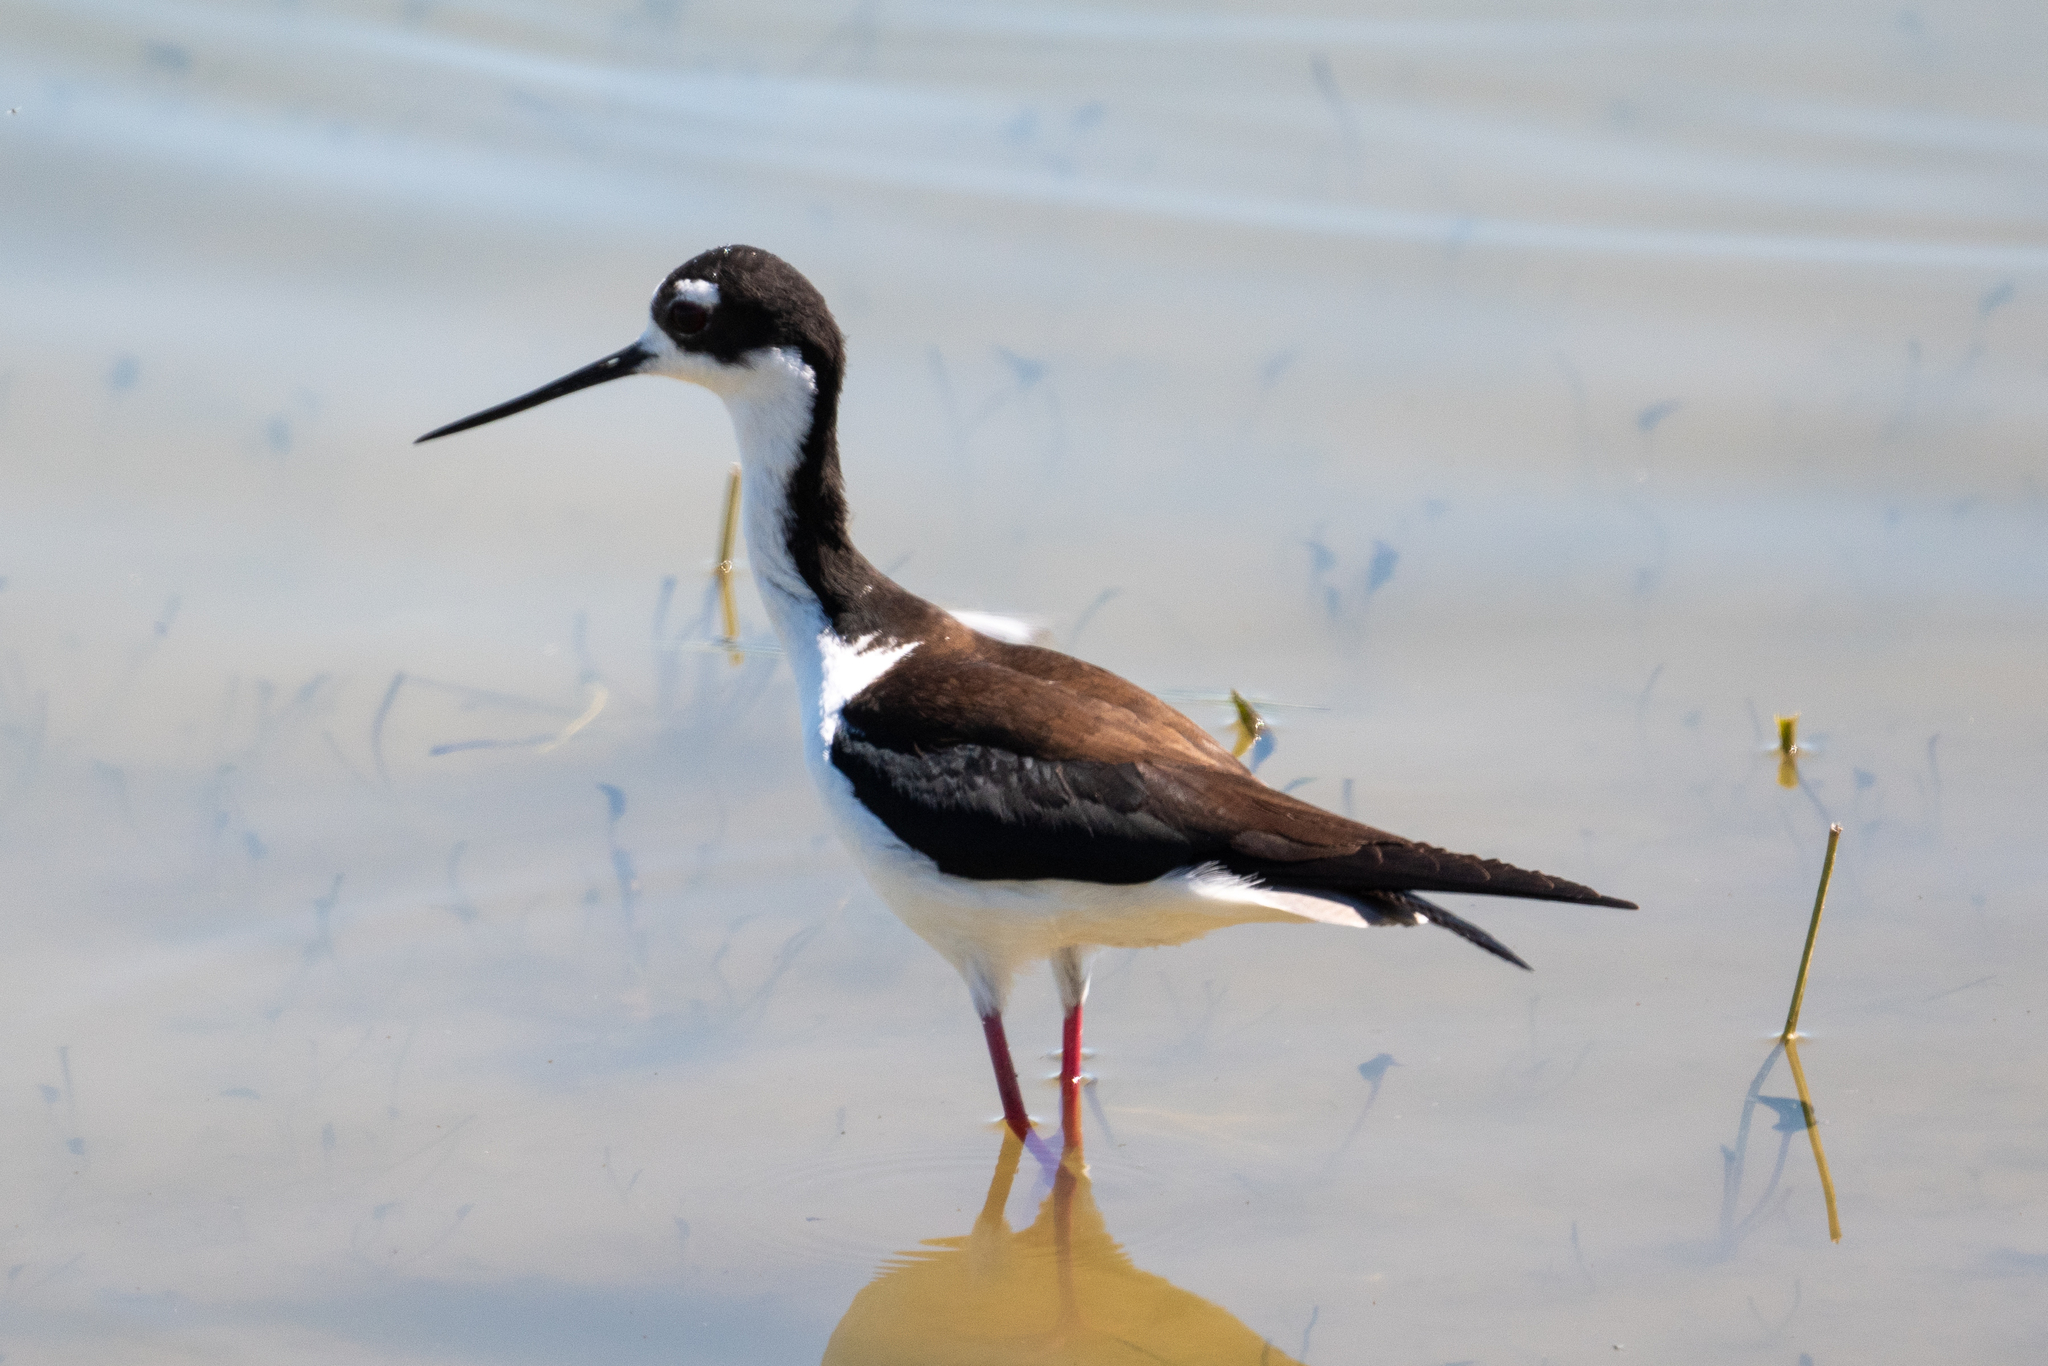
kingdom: Animalia
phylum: Chordata
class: Aves
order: Charadriiformes
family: Recurvirostridae
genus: Himantopus
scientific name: Himantopus mexicanus
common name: Black-necked stilt
